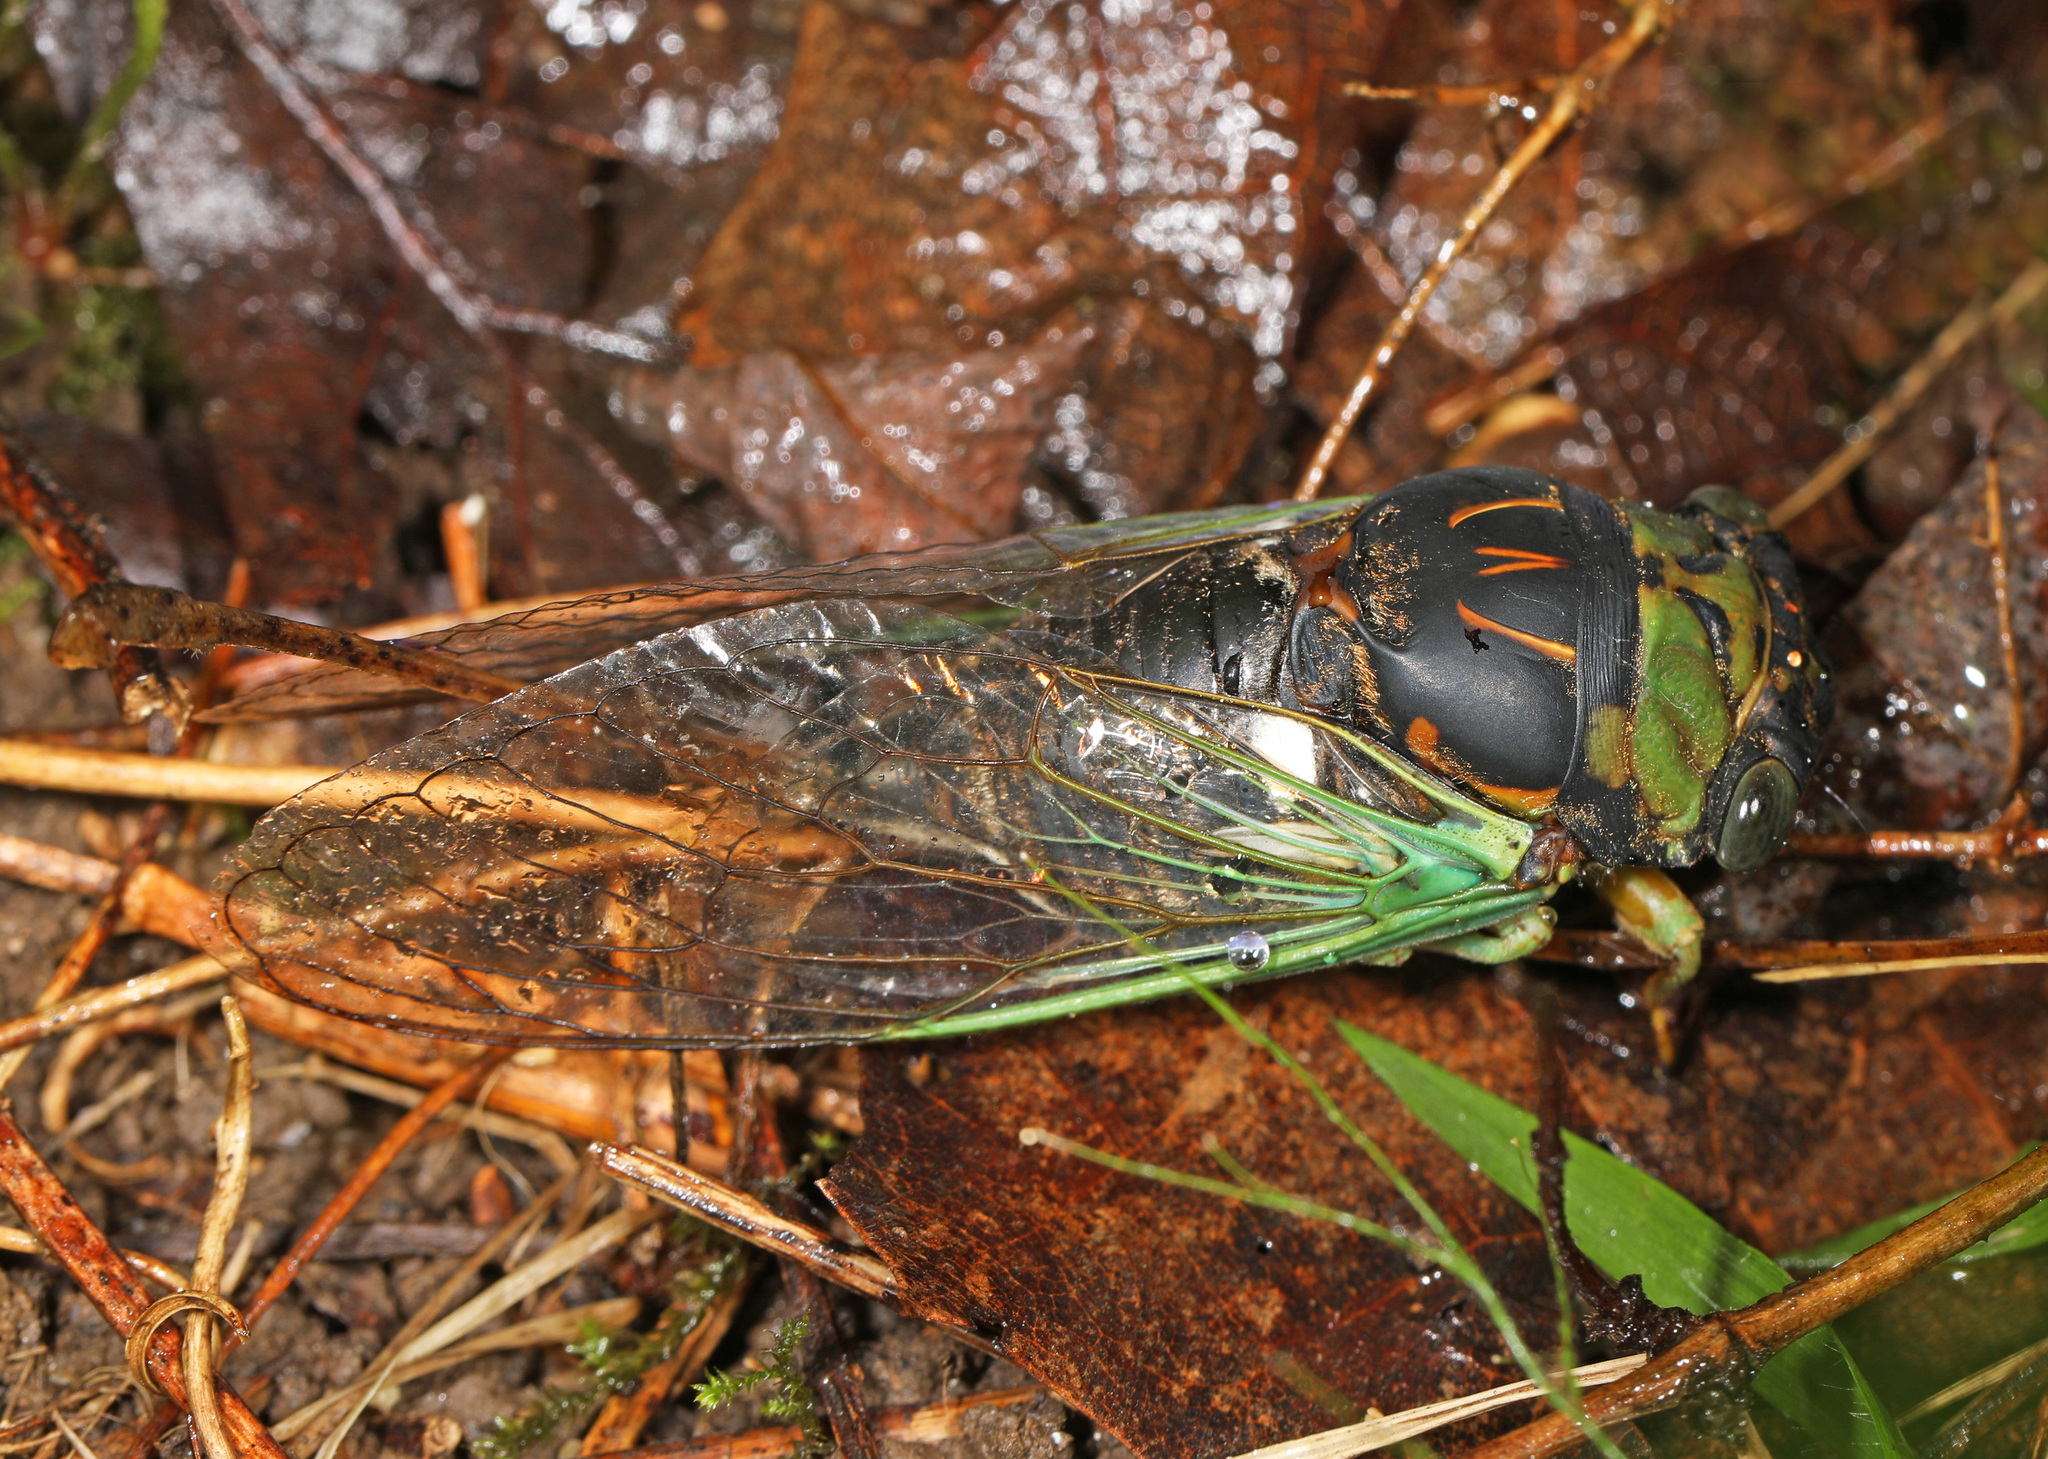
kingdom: Animalia
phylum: Arthropoda
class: Insecta
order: Hemiptera
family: Cicadidae
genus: Neotibicen
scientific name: Neotibicen tibicen
